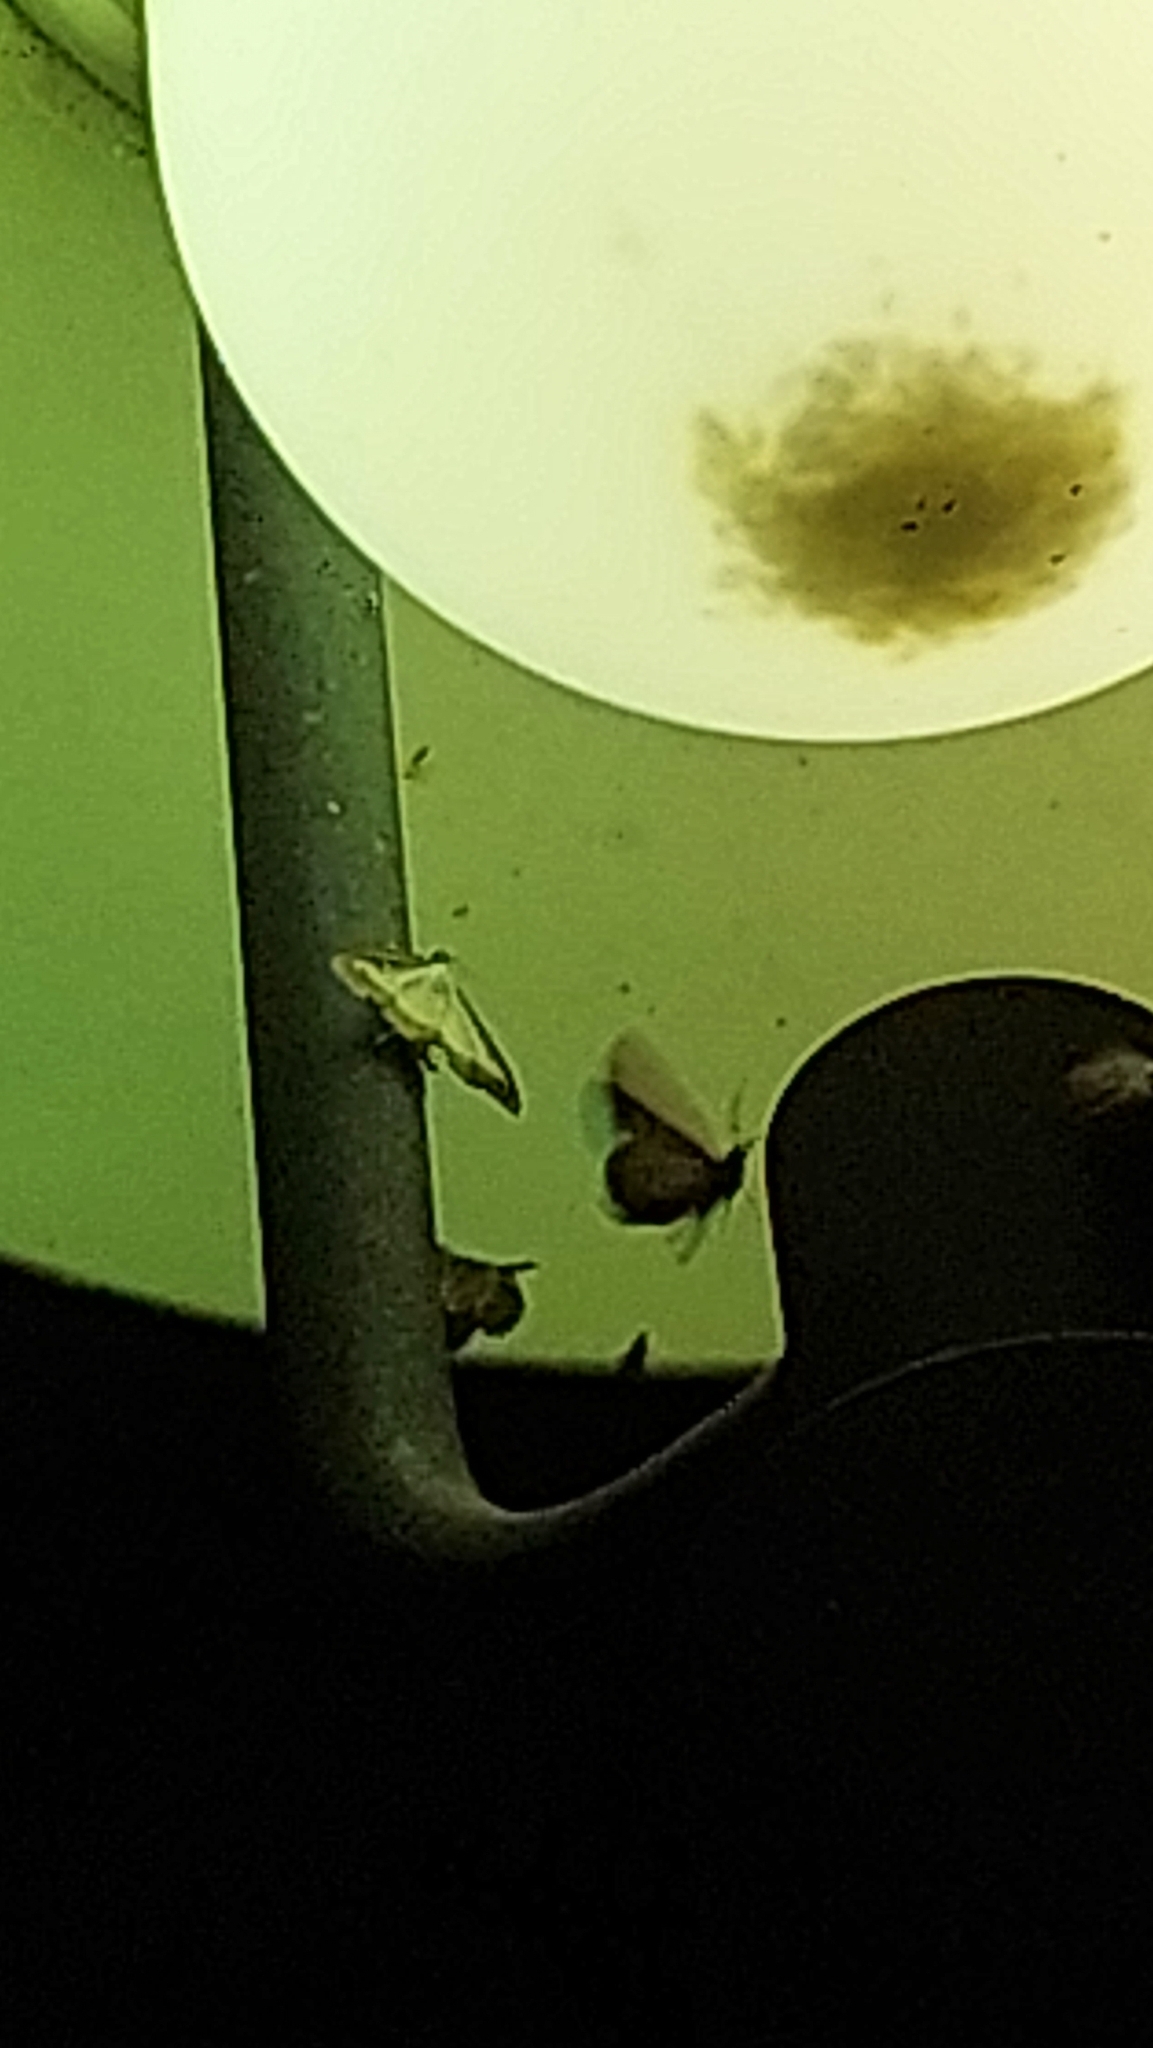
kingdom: Animalia
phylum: Arthropoda
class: Insecta
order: Lepidoptera
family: Crambidae
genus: Cydalima
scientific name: Cydalima perspectalis
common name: Box tree moth
